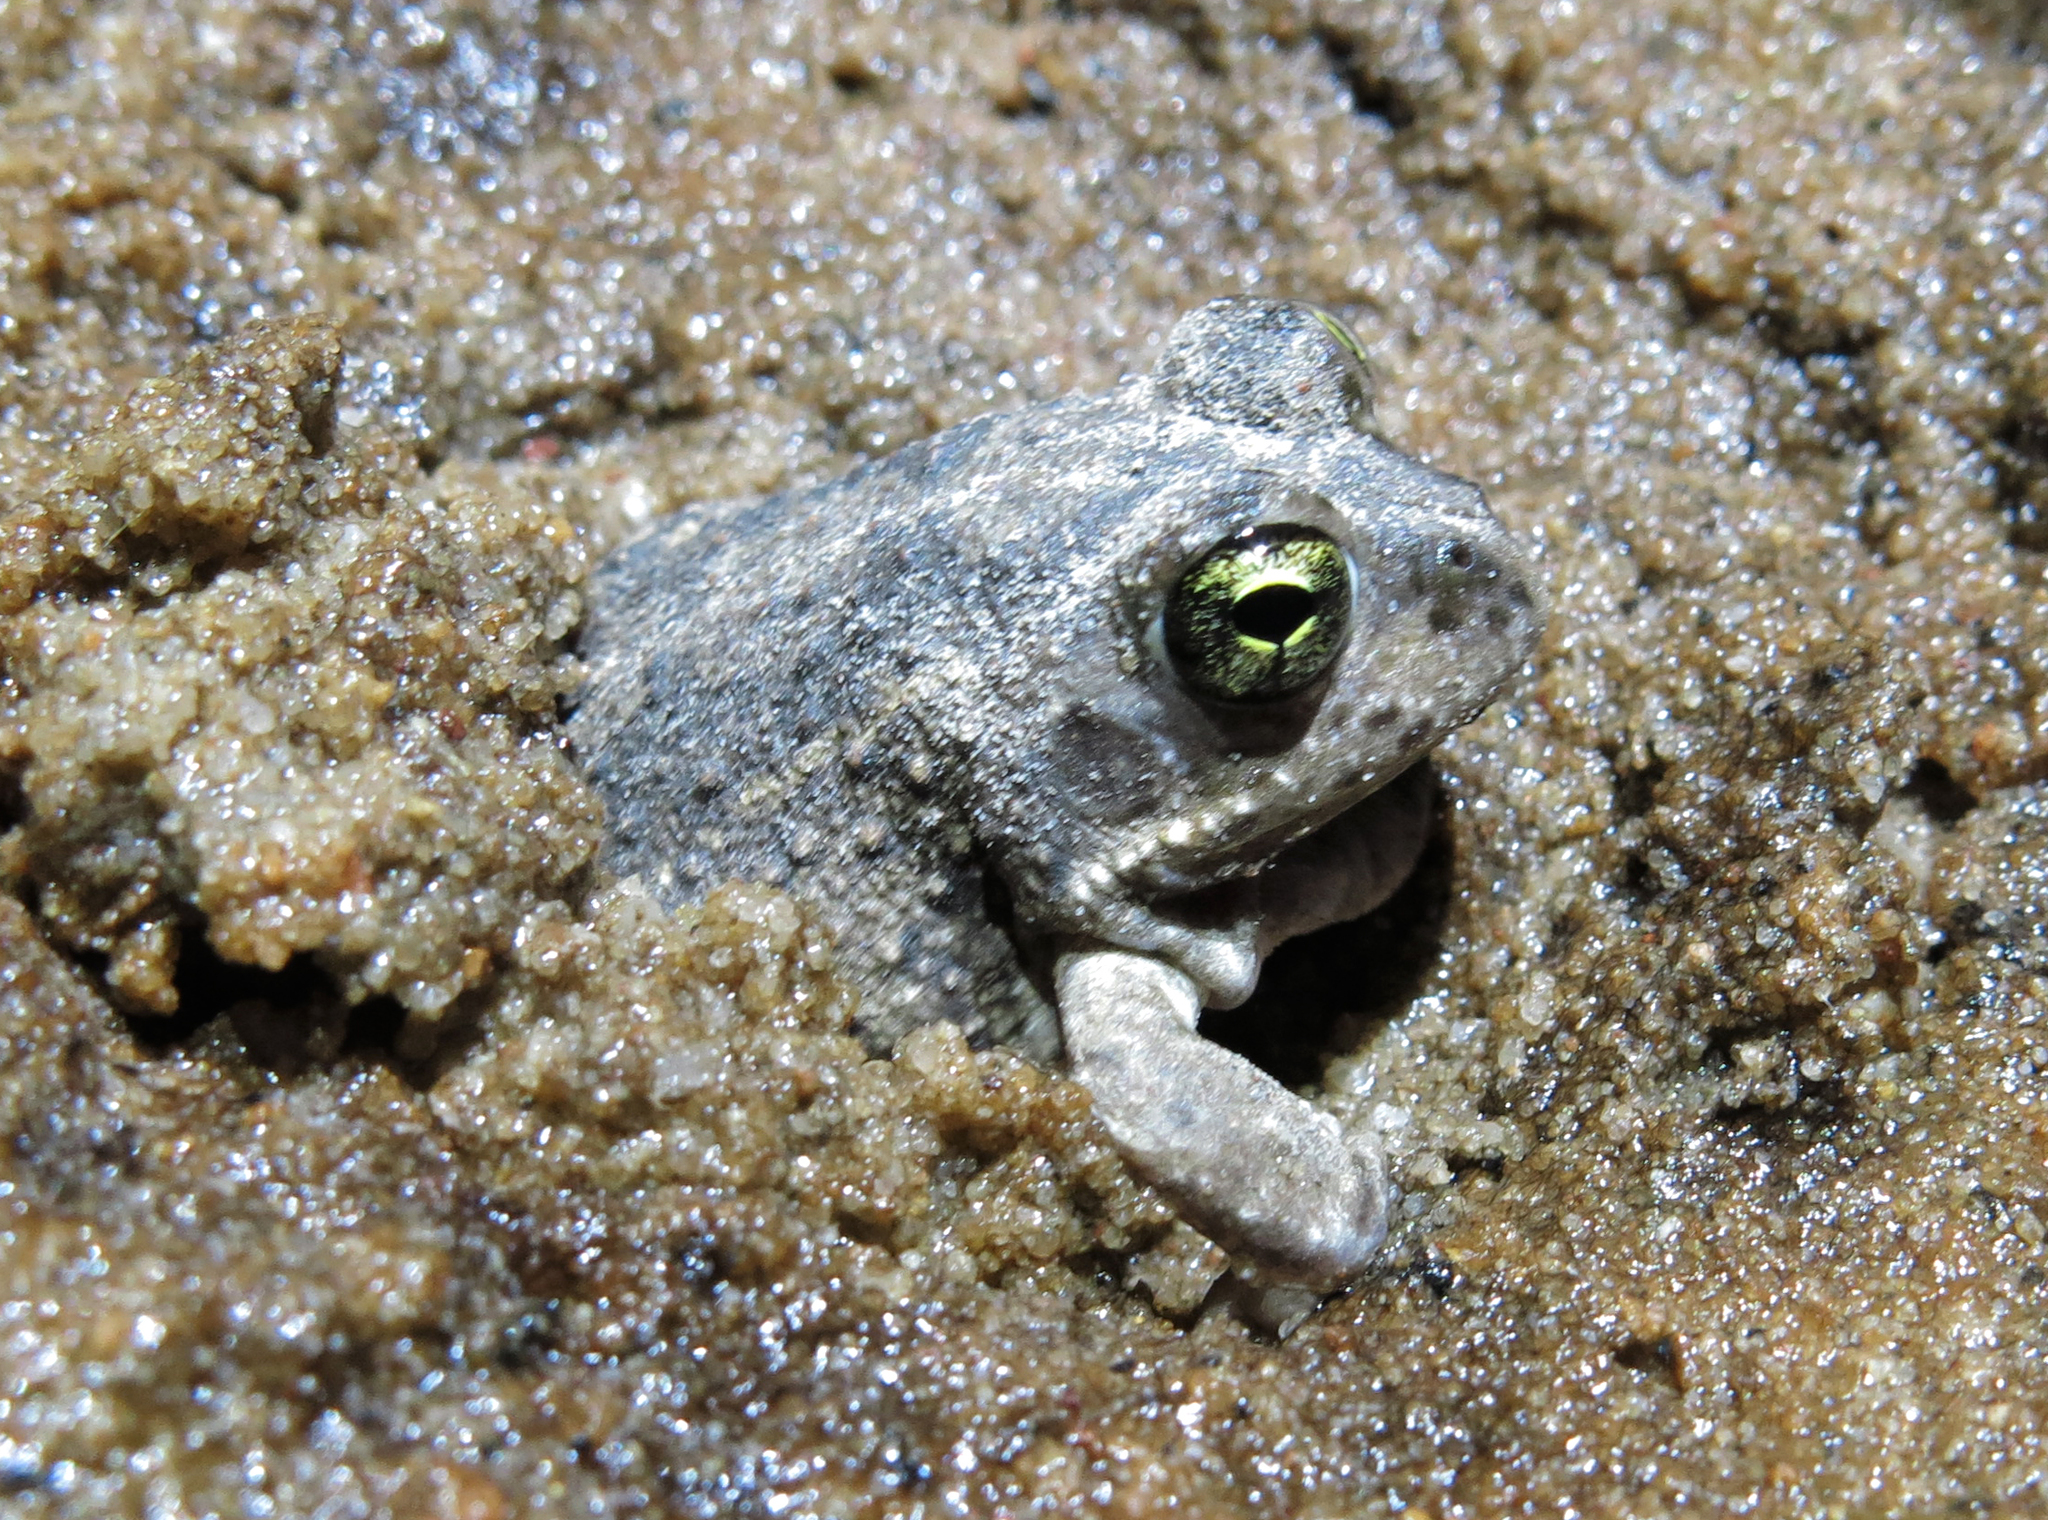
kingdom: Animalia
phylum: Chordata
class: Amphibia
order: Anura
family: Pyxicephalidae
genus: Tomopterna
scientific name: Tomopterna delalandii
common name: Delalande's burrowing bullfrog
